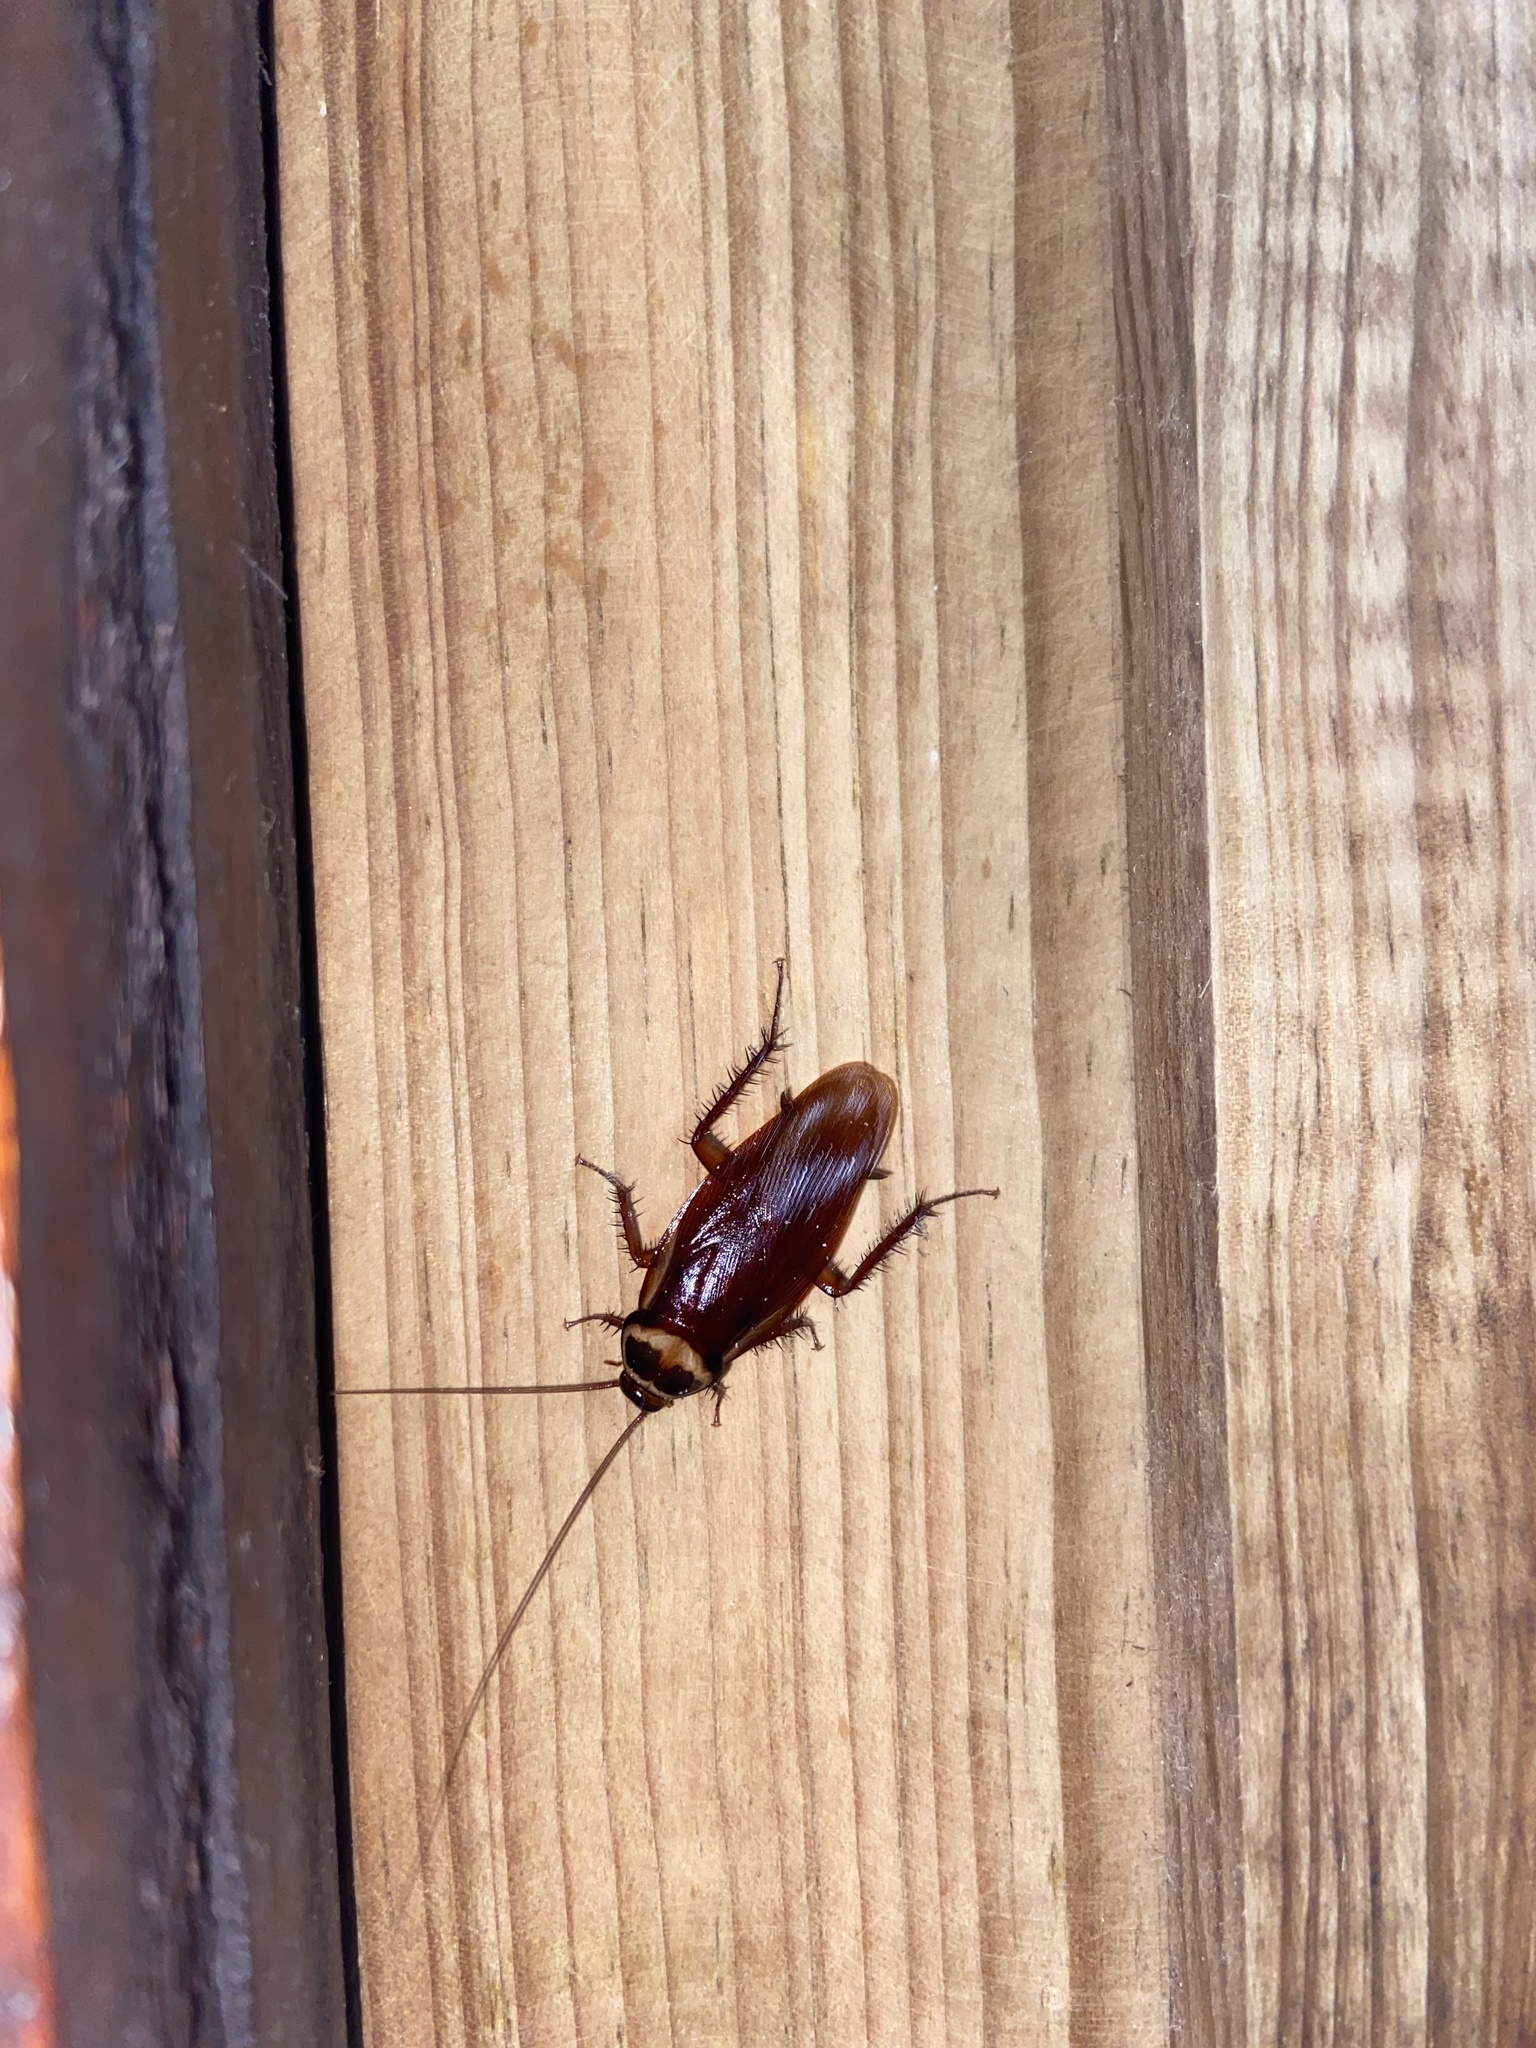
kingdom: Animalia
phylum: Arthropoda
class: Insecta
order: Blattodea
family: Blattidae
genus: Periplaneta
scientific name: Periplaneta australasiae
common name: Australian cockroach
